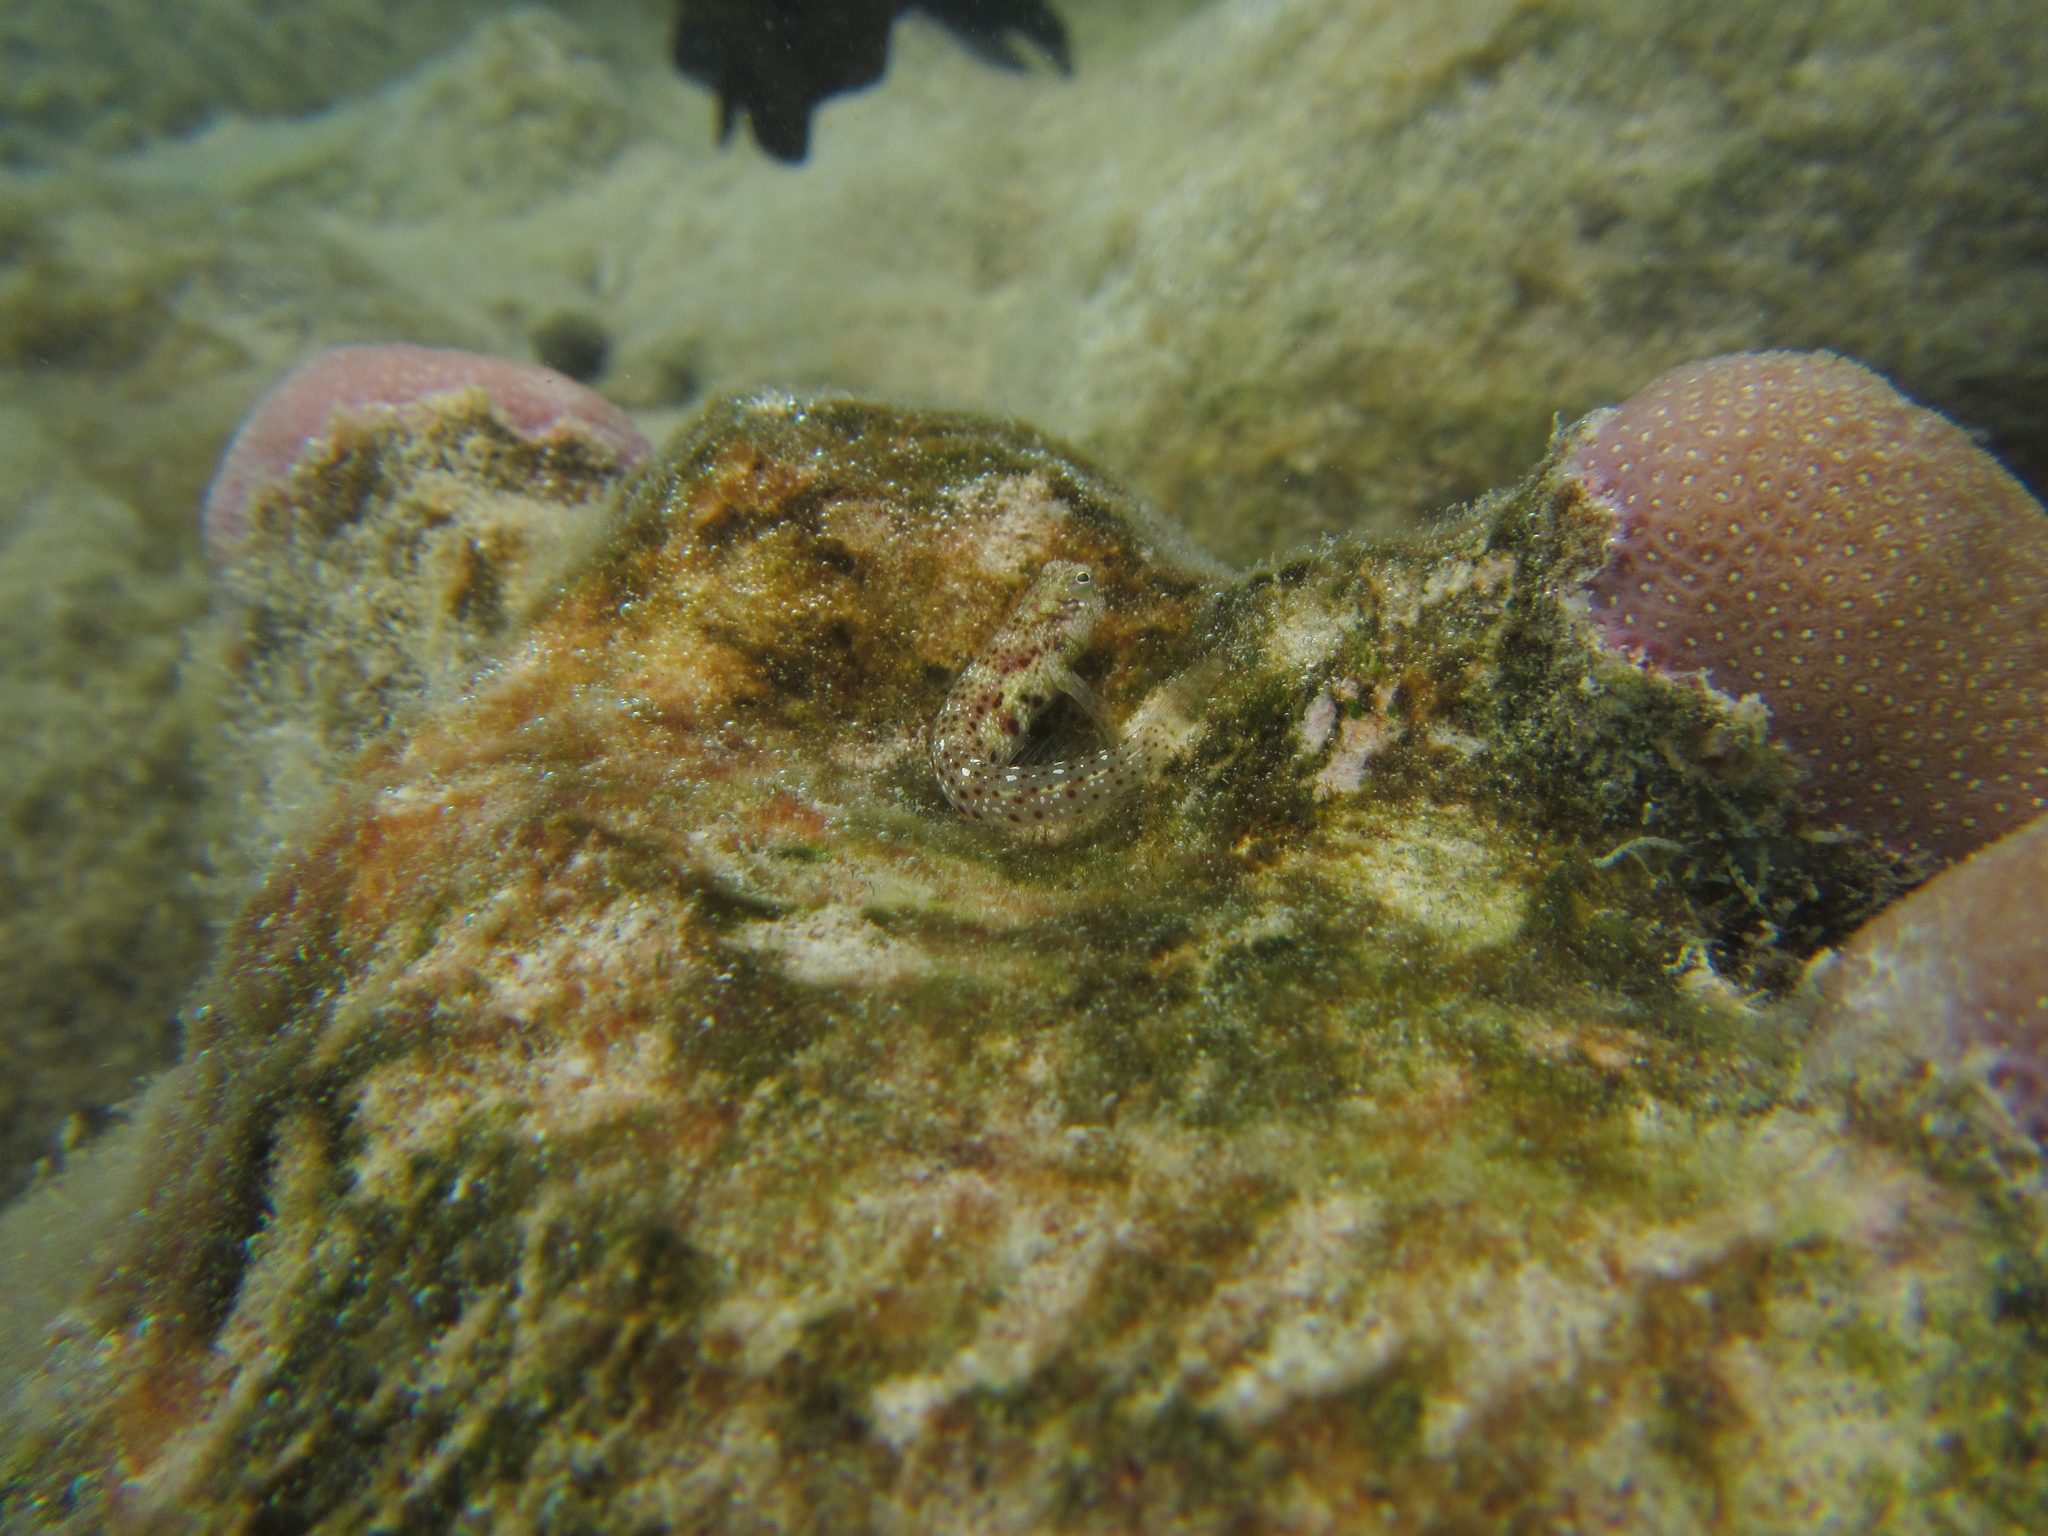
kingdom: Animalia
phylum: Chordata
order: Perciformes
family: Blenniidae
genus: Glyptoparus
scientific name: Glyptoparus delicatulus
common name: Delicate blenny
